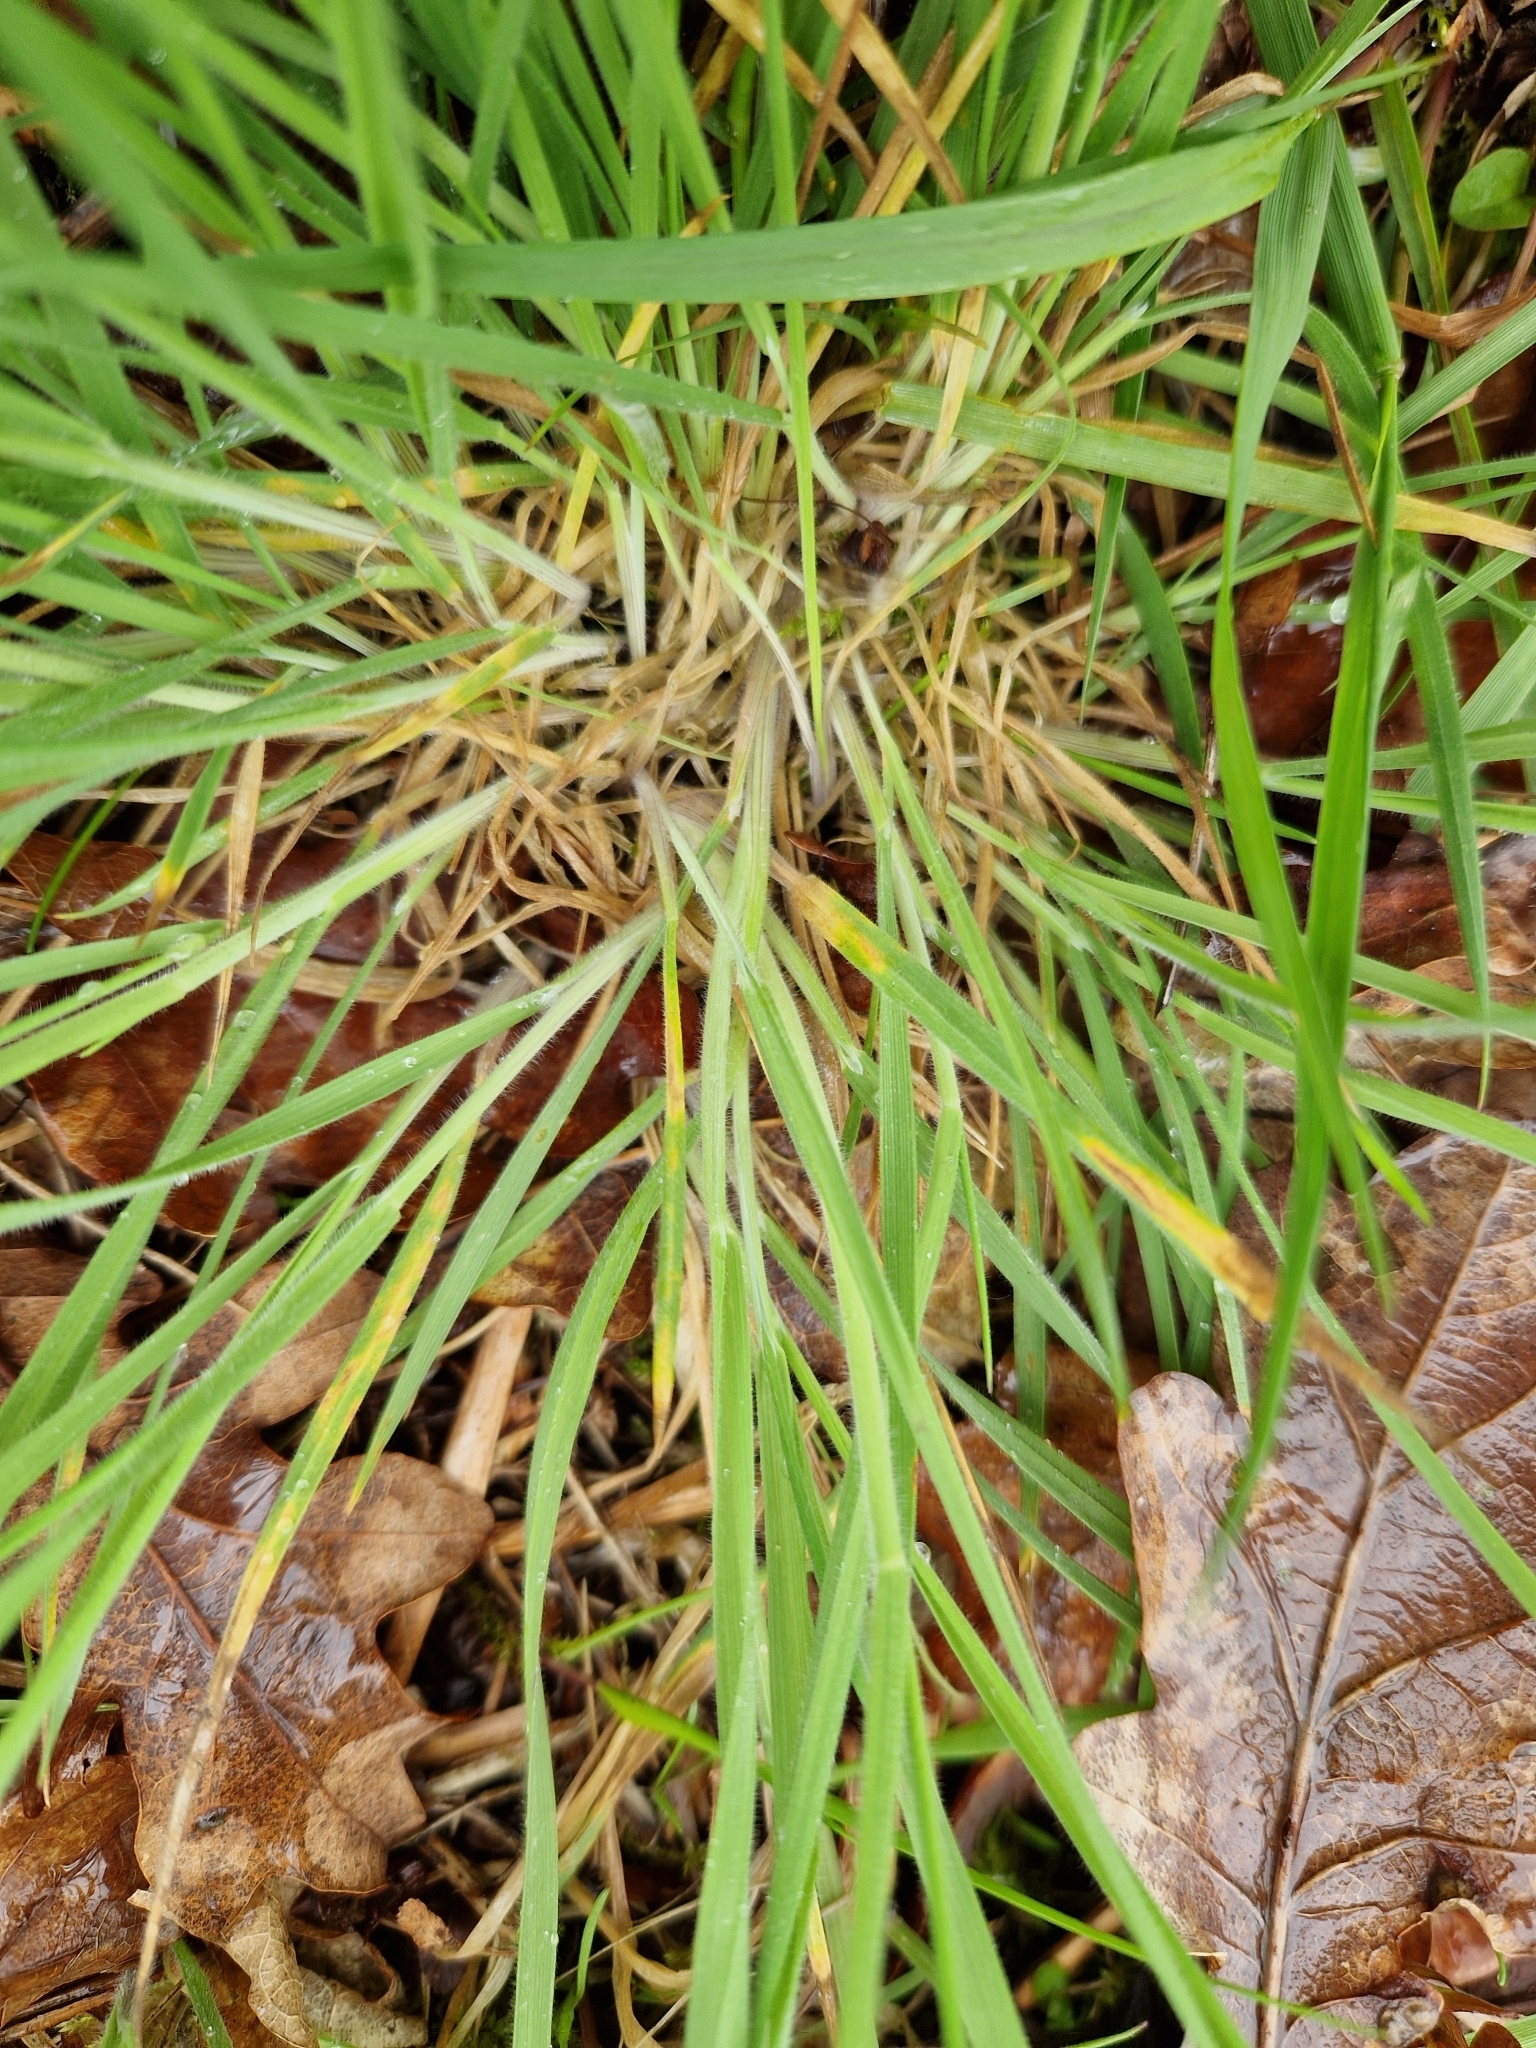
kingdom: Plantae
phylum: Tracheophyta
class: Liliopsida
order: Poales
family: Poaceae
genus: Holcus
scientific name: Holcus lanatus
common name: Yorkshire-fog
